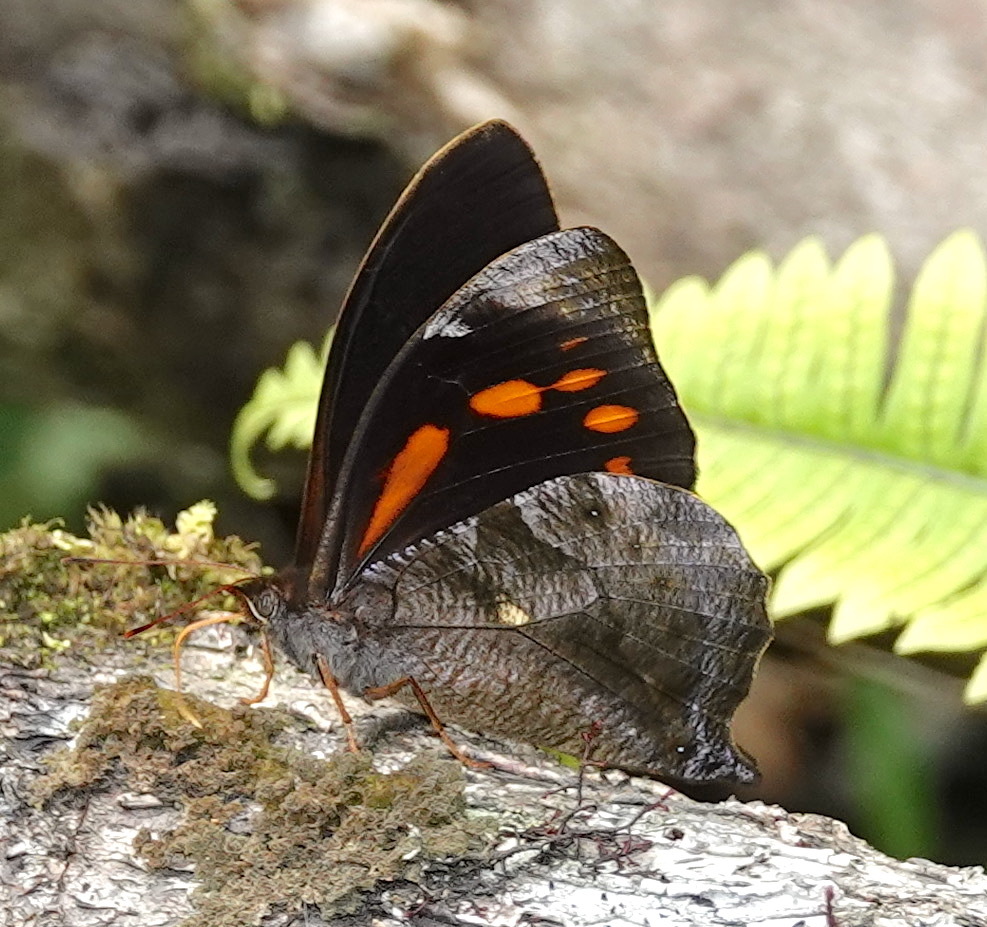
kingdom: Animalia
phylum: Arthropoda
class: Insecta
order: Lepidoptera
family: Nymphalidae
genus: Corades
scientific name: Corades medeba
